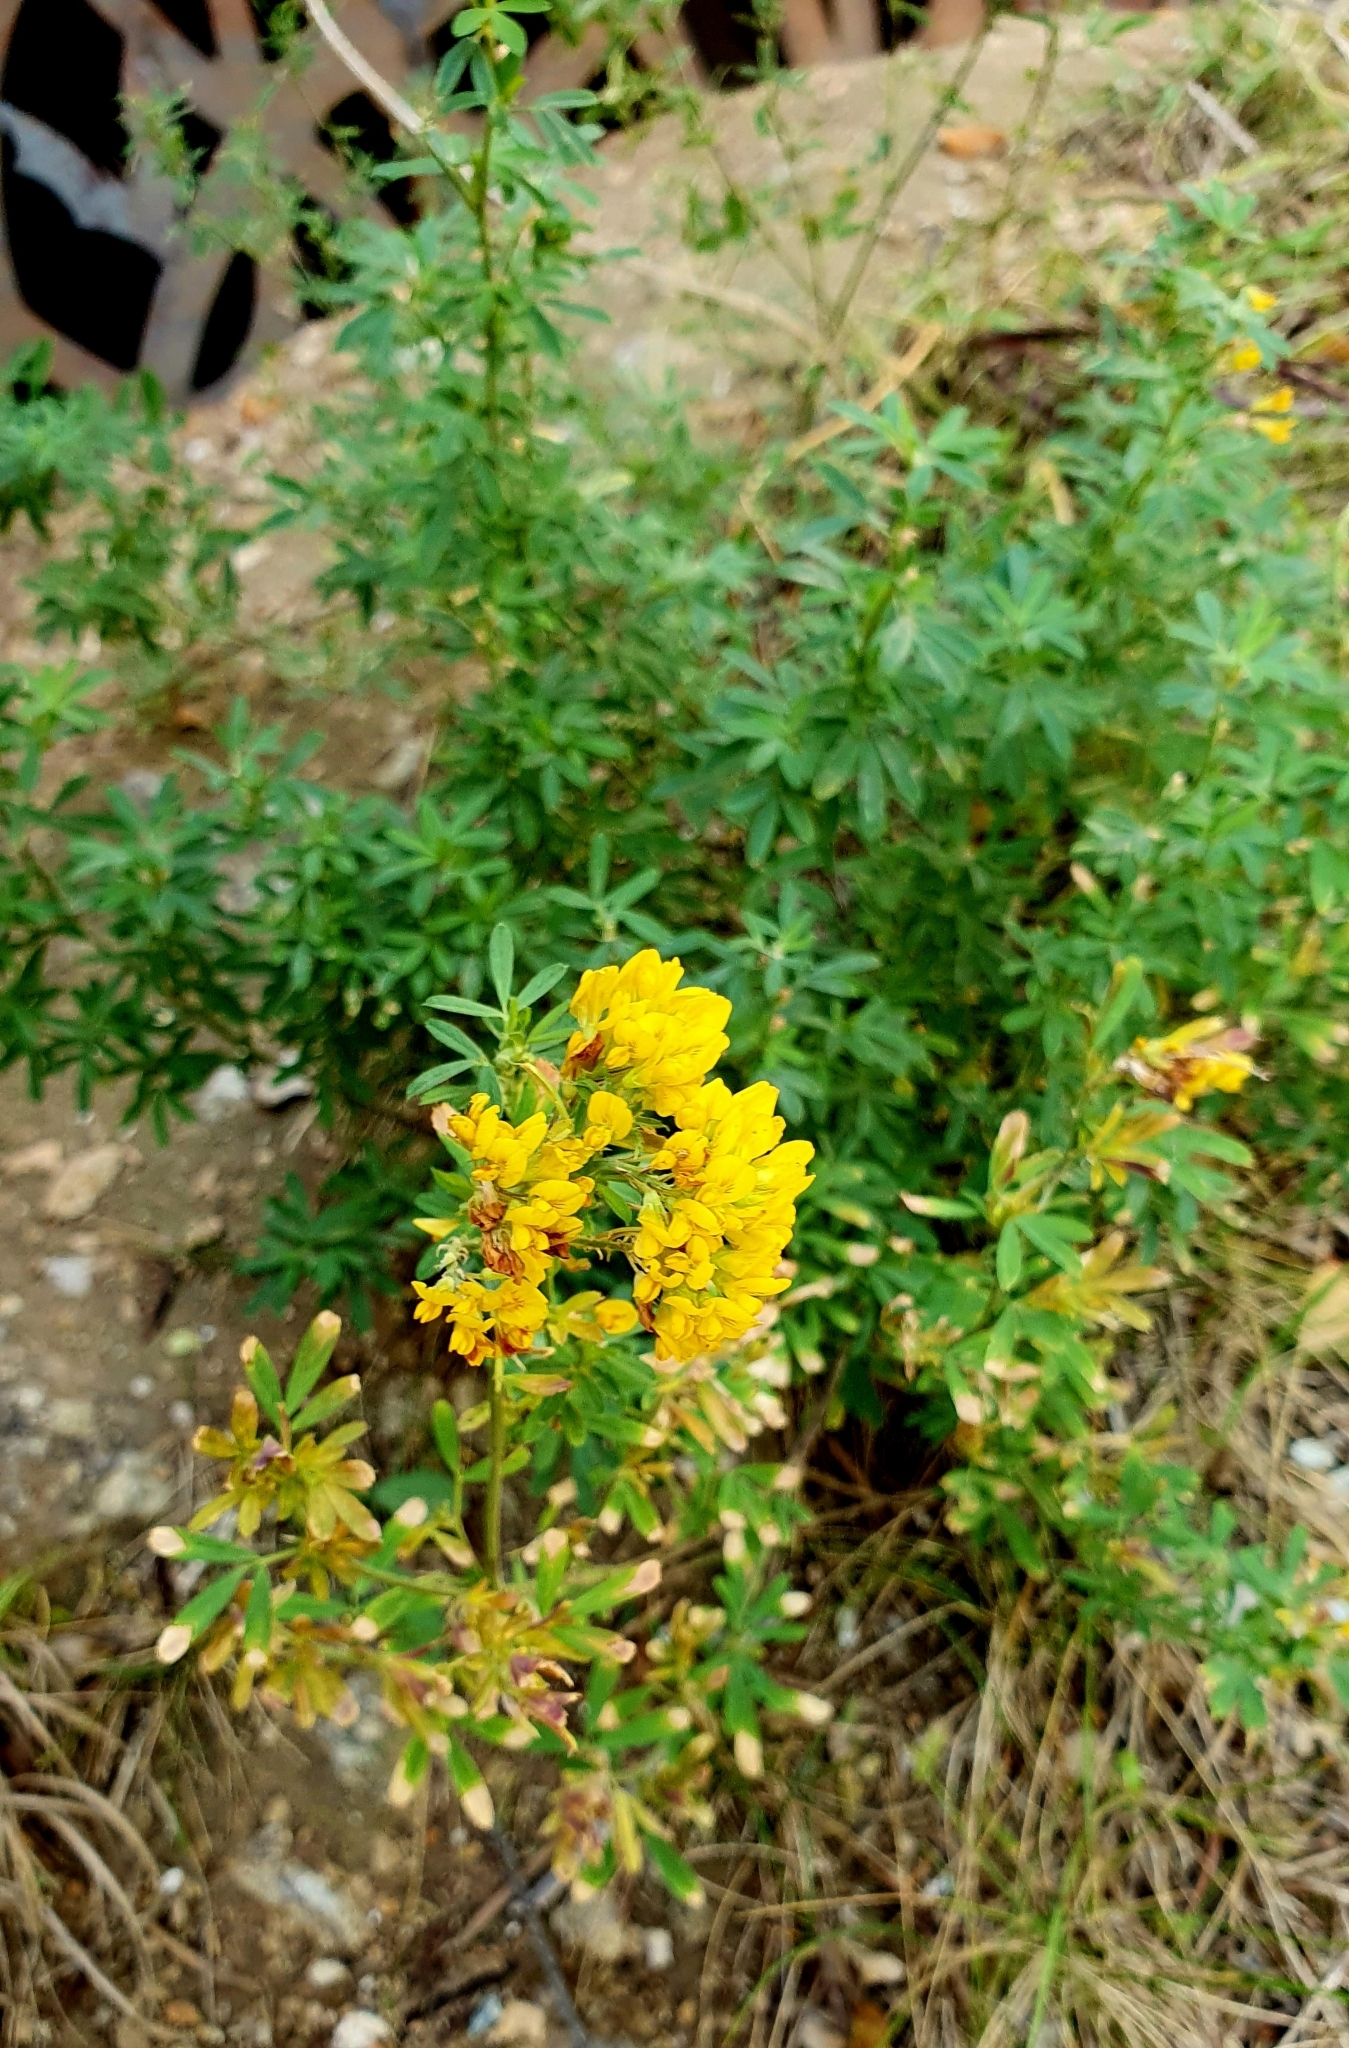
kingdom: Plantae
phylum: Tracheophyta
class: Magnoliopsida
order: Fabales
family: Fabaceae
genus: Medicago
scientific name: Medicago falcata
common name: Sickle medick
